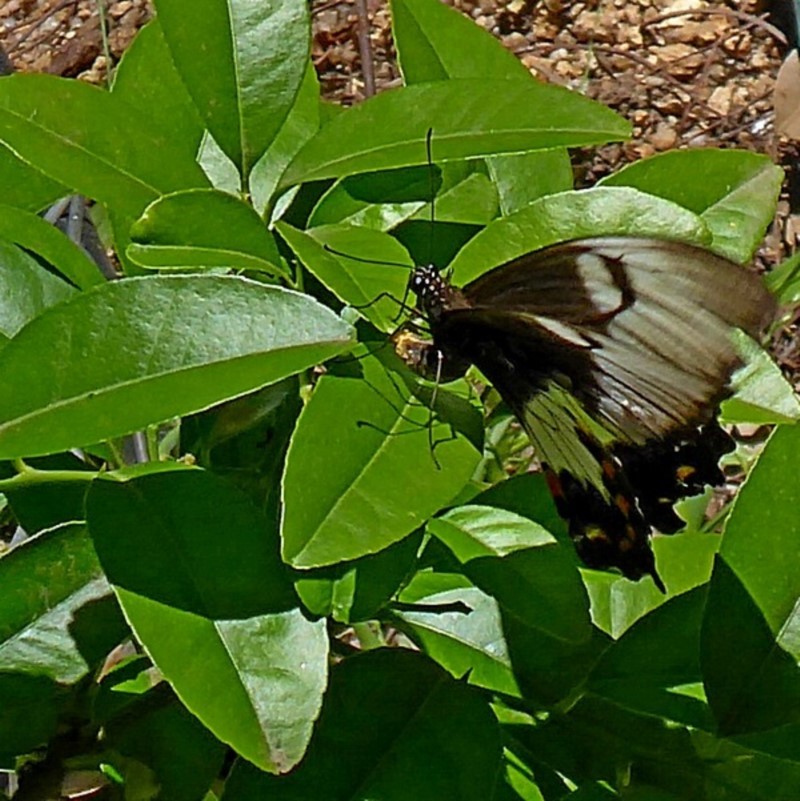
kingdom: Animalia
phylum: Arthropoda
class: Insecta
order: Lepidoptera
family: Papilionidae
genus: Papilio
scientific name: Papilio aegeus
